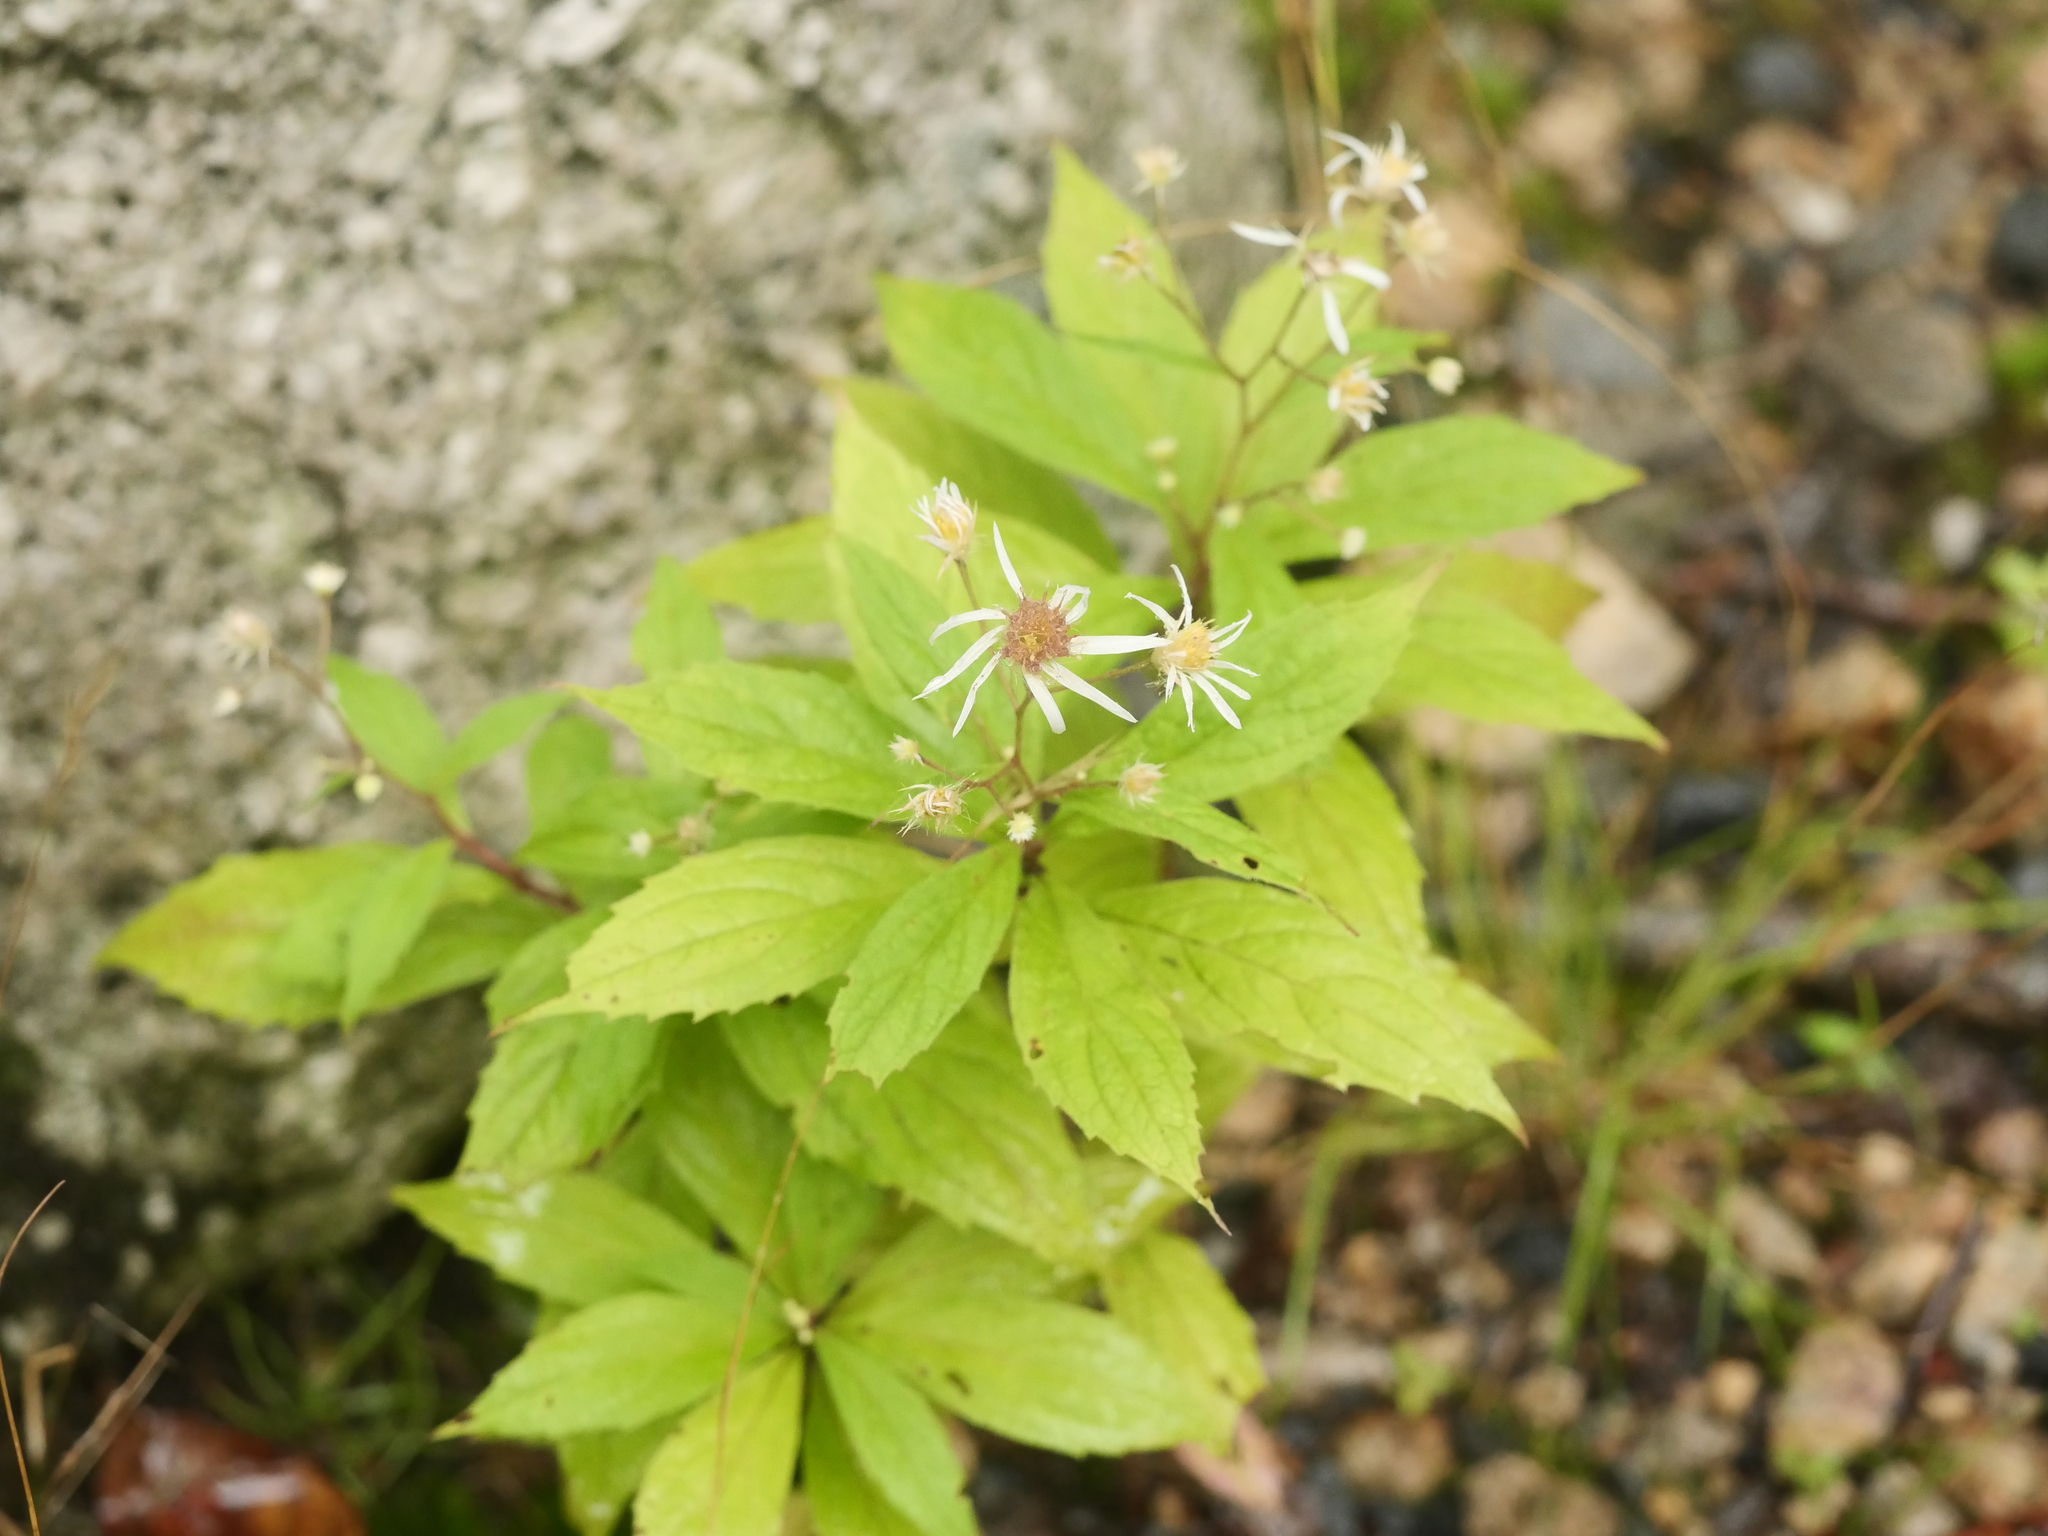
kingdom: Plantae
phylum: Tracheophyta
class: Magnoliopsida
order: Asterales
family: Asteraceae
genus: Oclemena
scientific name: Oclemena acuminata
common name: Mountain aster
